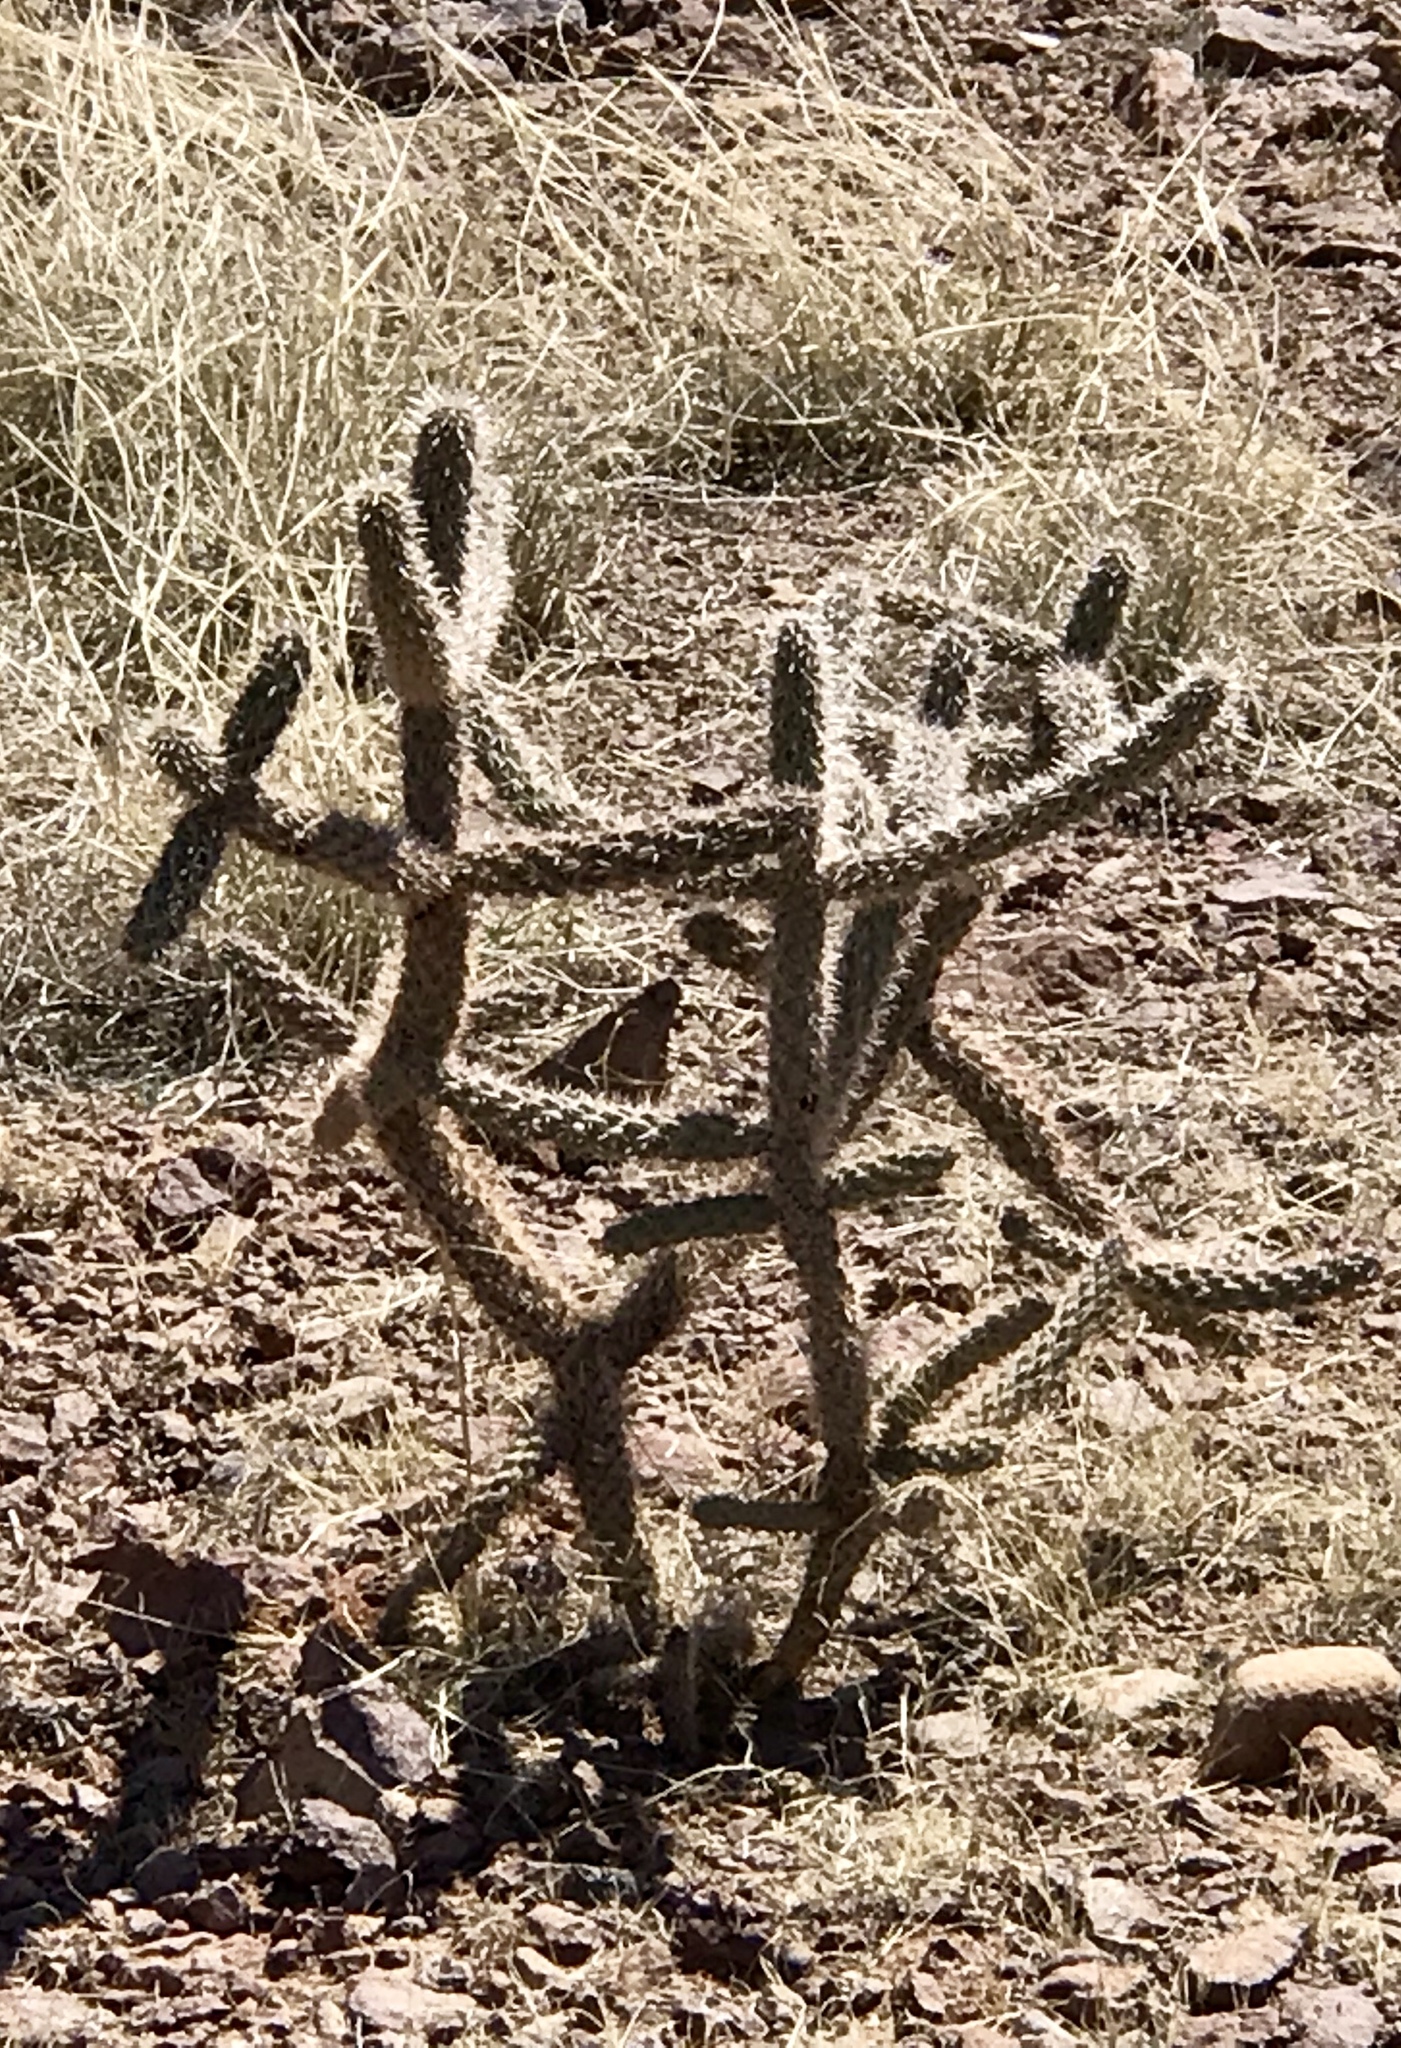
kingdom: Plantae
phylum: Tracheophyta
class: Magnoliopsida
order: Caryophyllales
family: Cactaceae
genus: Cylindropuntia
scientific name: Cylindropuntia imbricata
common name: Candelabrum cactus
